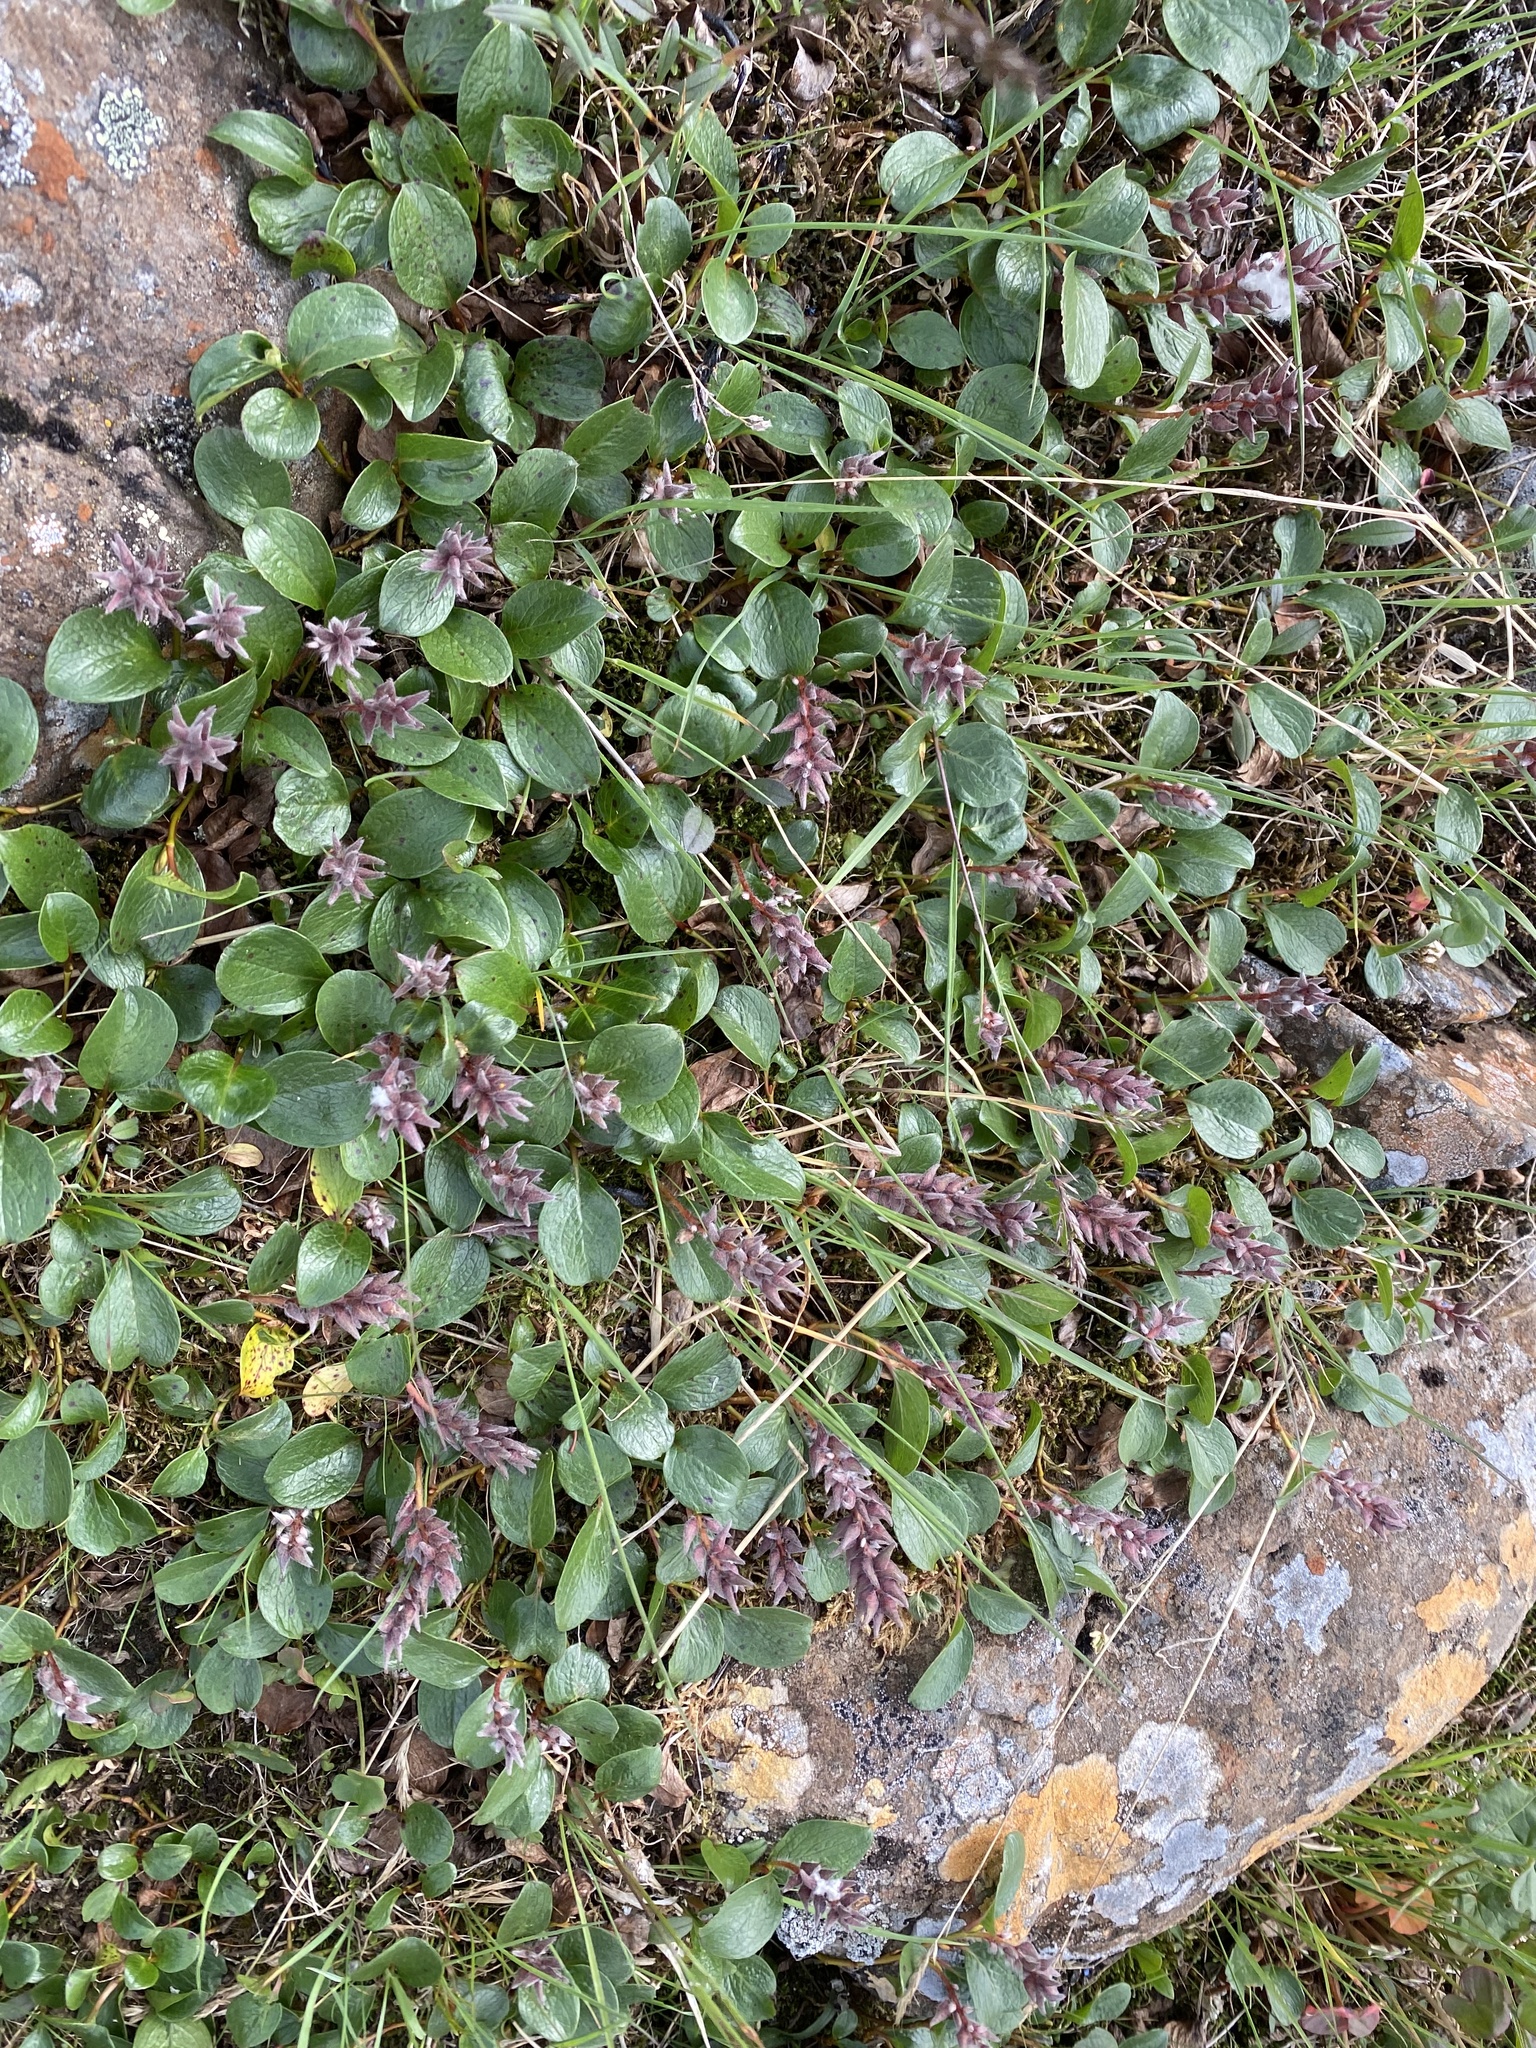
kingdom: Plantae
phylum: Tracheophyta
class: Magnoliopsida
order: Malpighiales
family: Salicaceae
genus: Salix
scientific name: Salix polaris
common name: Polar willow
